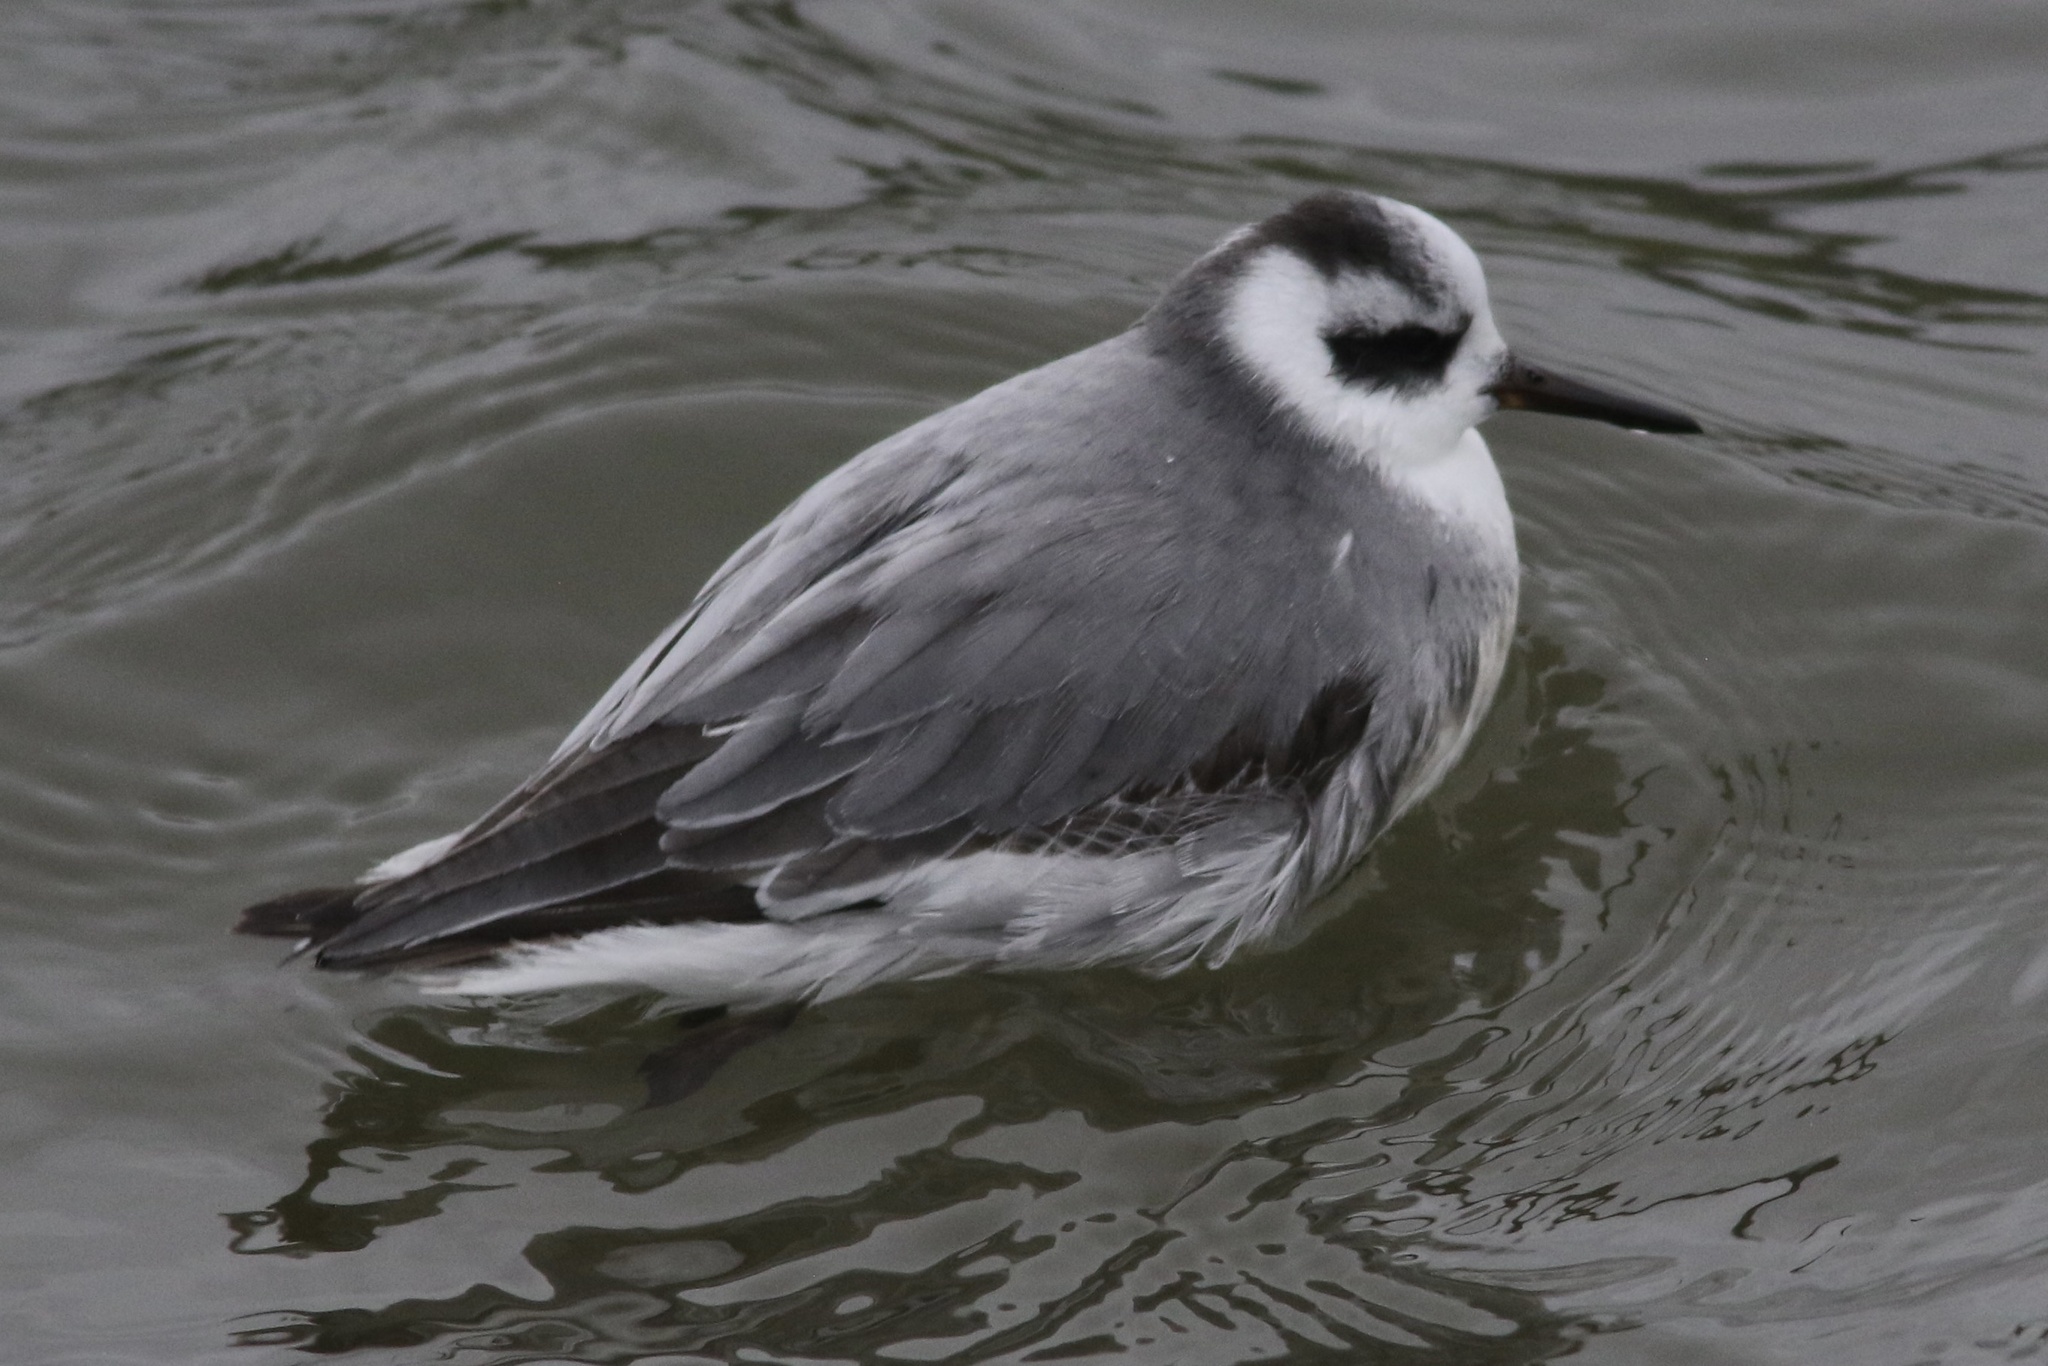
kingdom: Animalia
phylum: Chordata
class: Aves
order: Charadriiformes
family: Scolopacidae
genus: Phalaropus
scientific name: Phalaropus fulicarius
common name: Red phalarope
